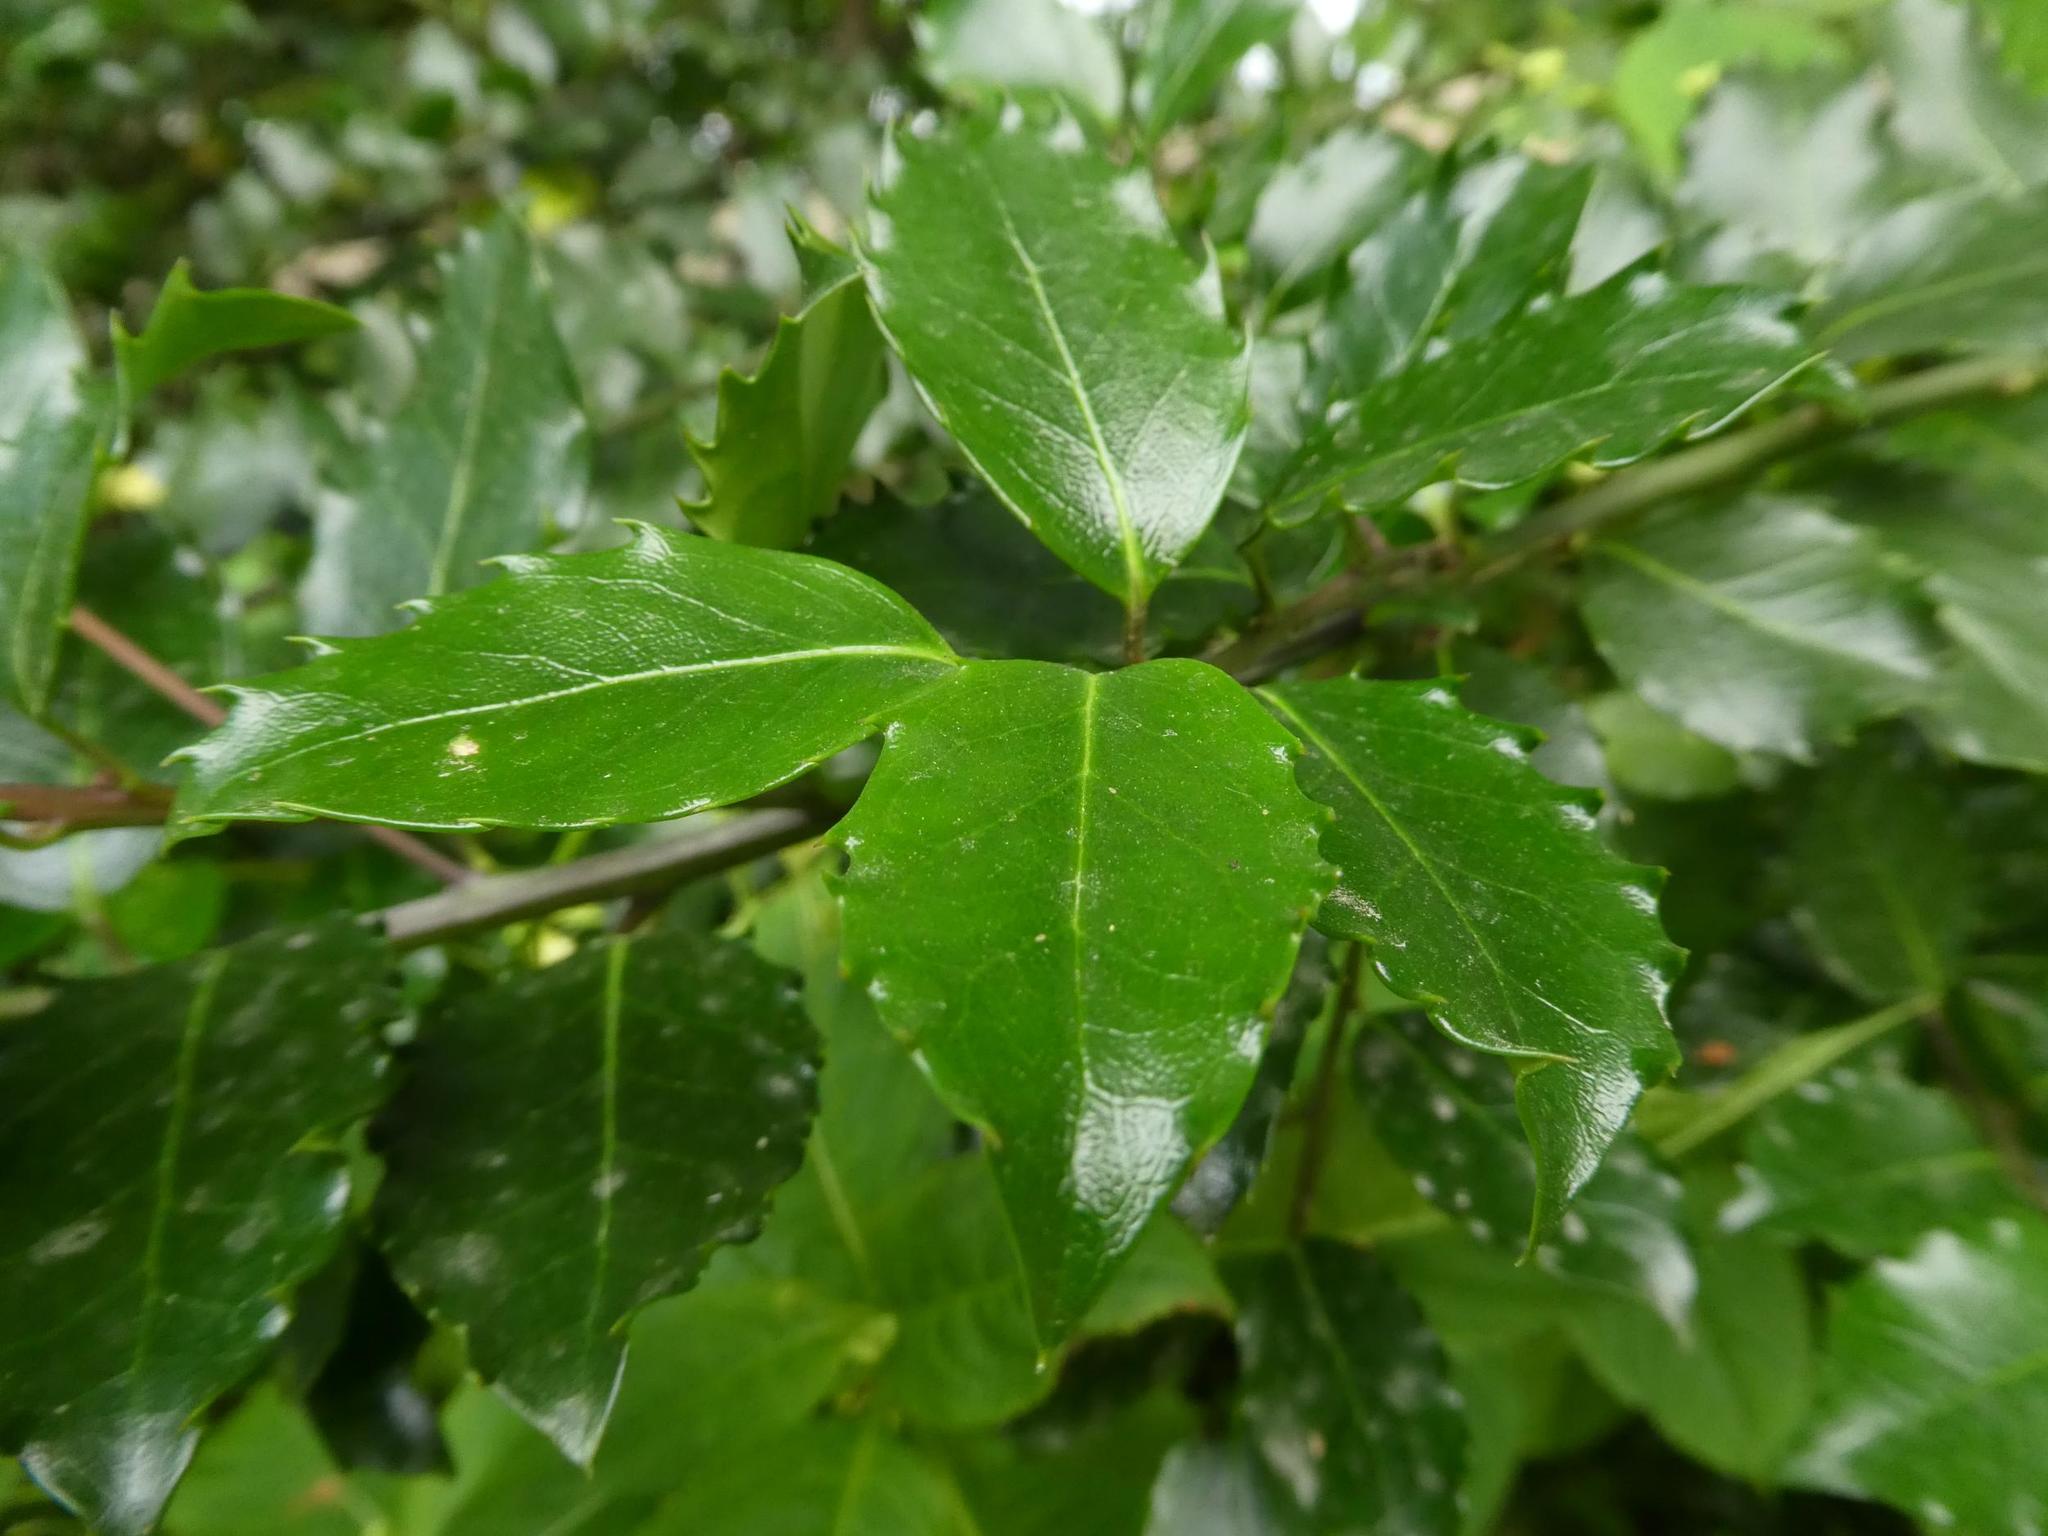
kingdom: Plantae
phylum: Tracheophyta
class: Magnoliopsida
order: Aquifoliales
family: Aquifoliaceae
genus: Ilex
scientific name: Ilex aquifolium
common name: English holly
